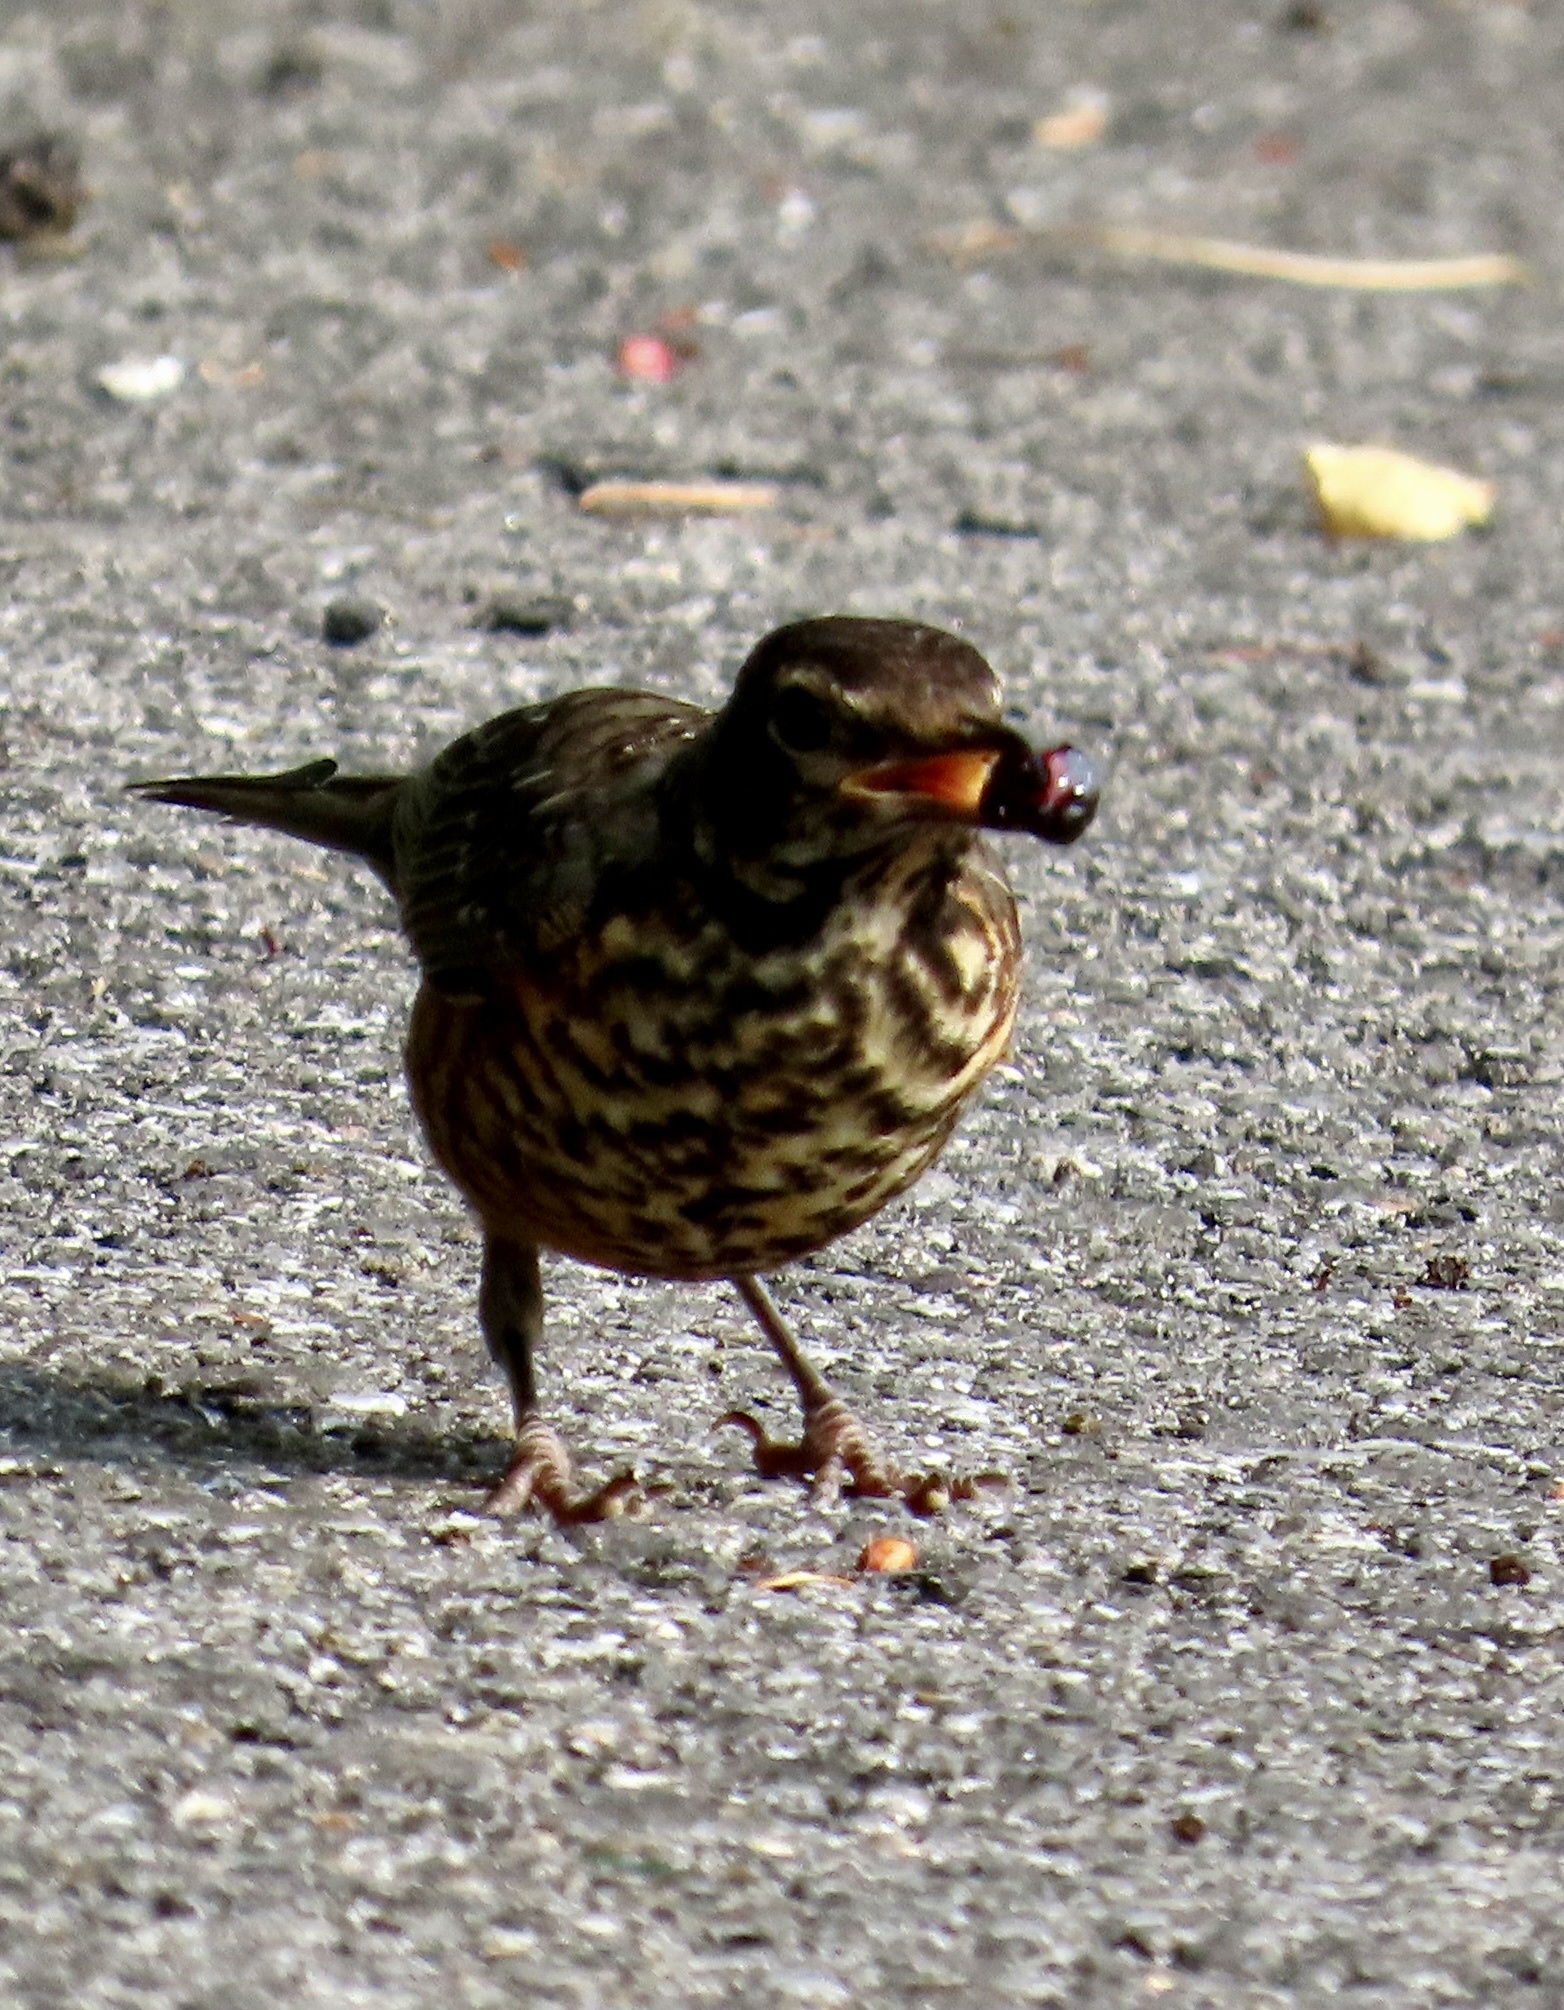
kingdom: Animalia
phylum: Chordata
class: Aves
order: Passeriformes
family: Turdidae
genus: Turdus
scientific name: Turdus migratorius
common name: American robin
